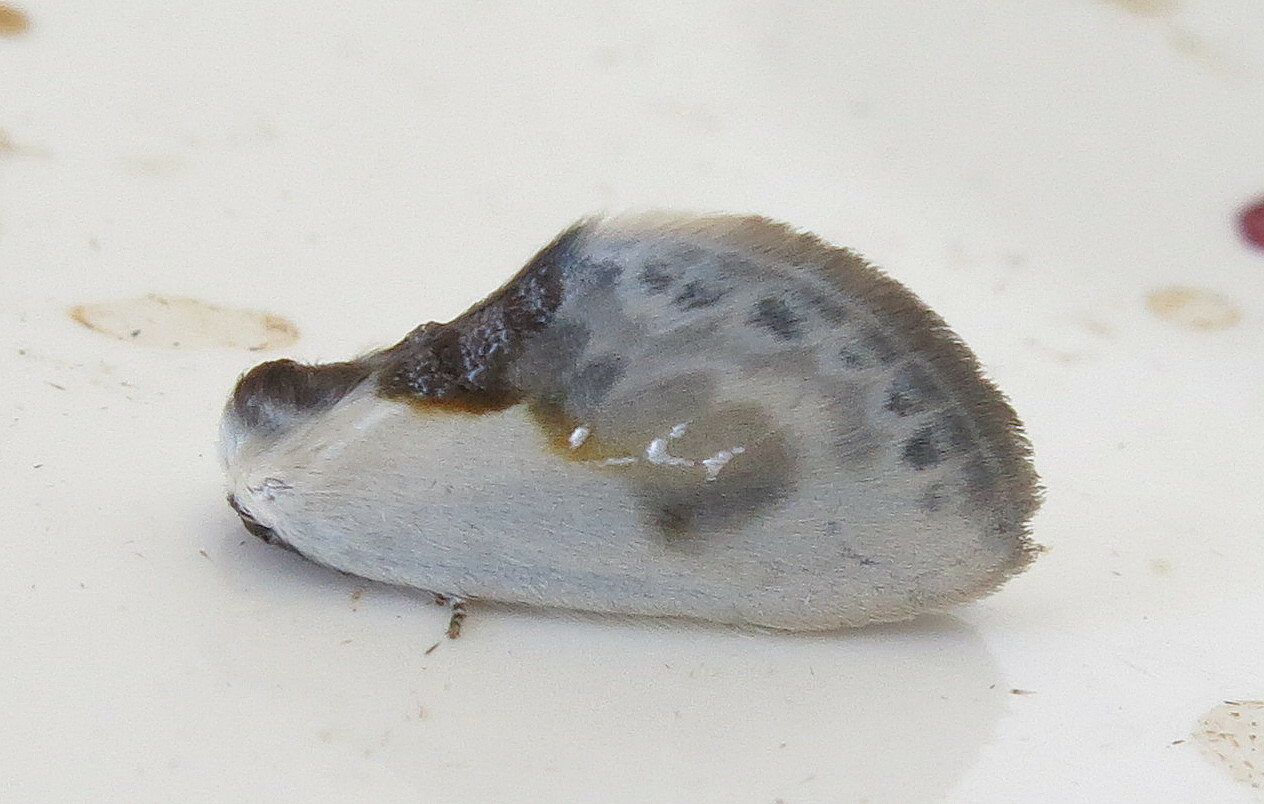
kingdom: Animalia
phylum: Arthropoda
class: Insecta
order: Lepidoptera
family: Drepanidae
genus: Cilix
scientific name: Cilix glaucata
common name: Chinese character
